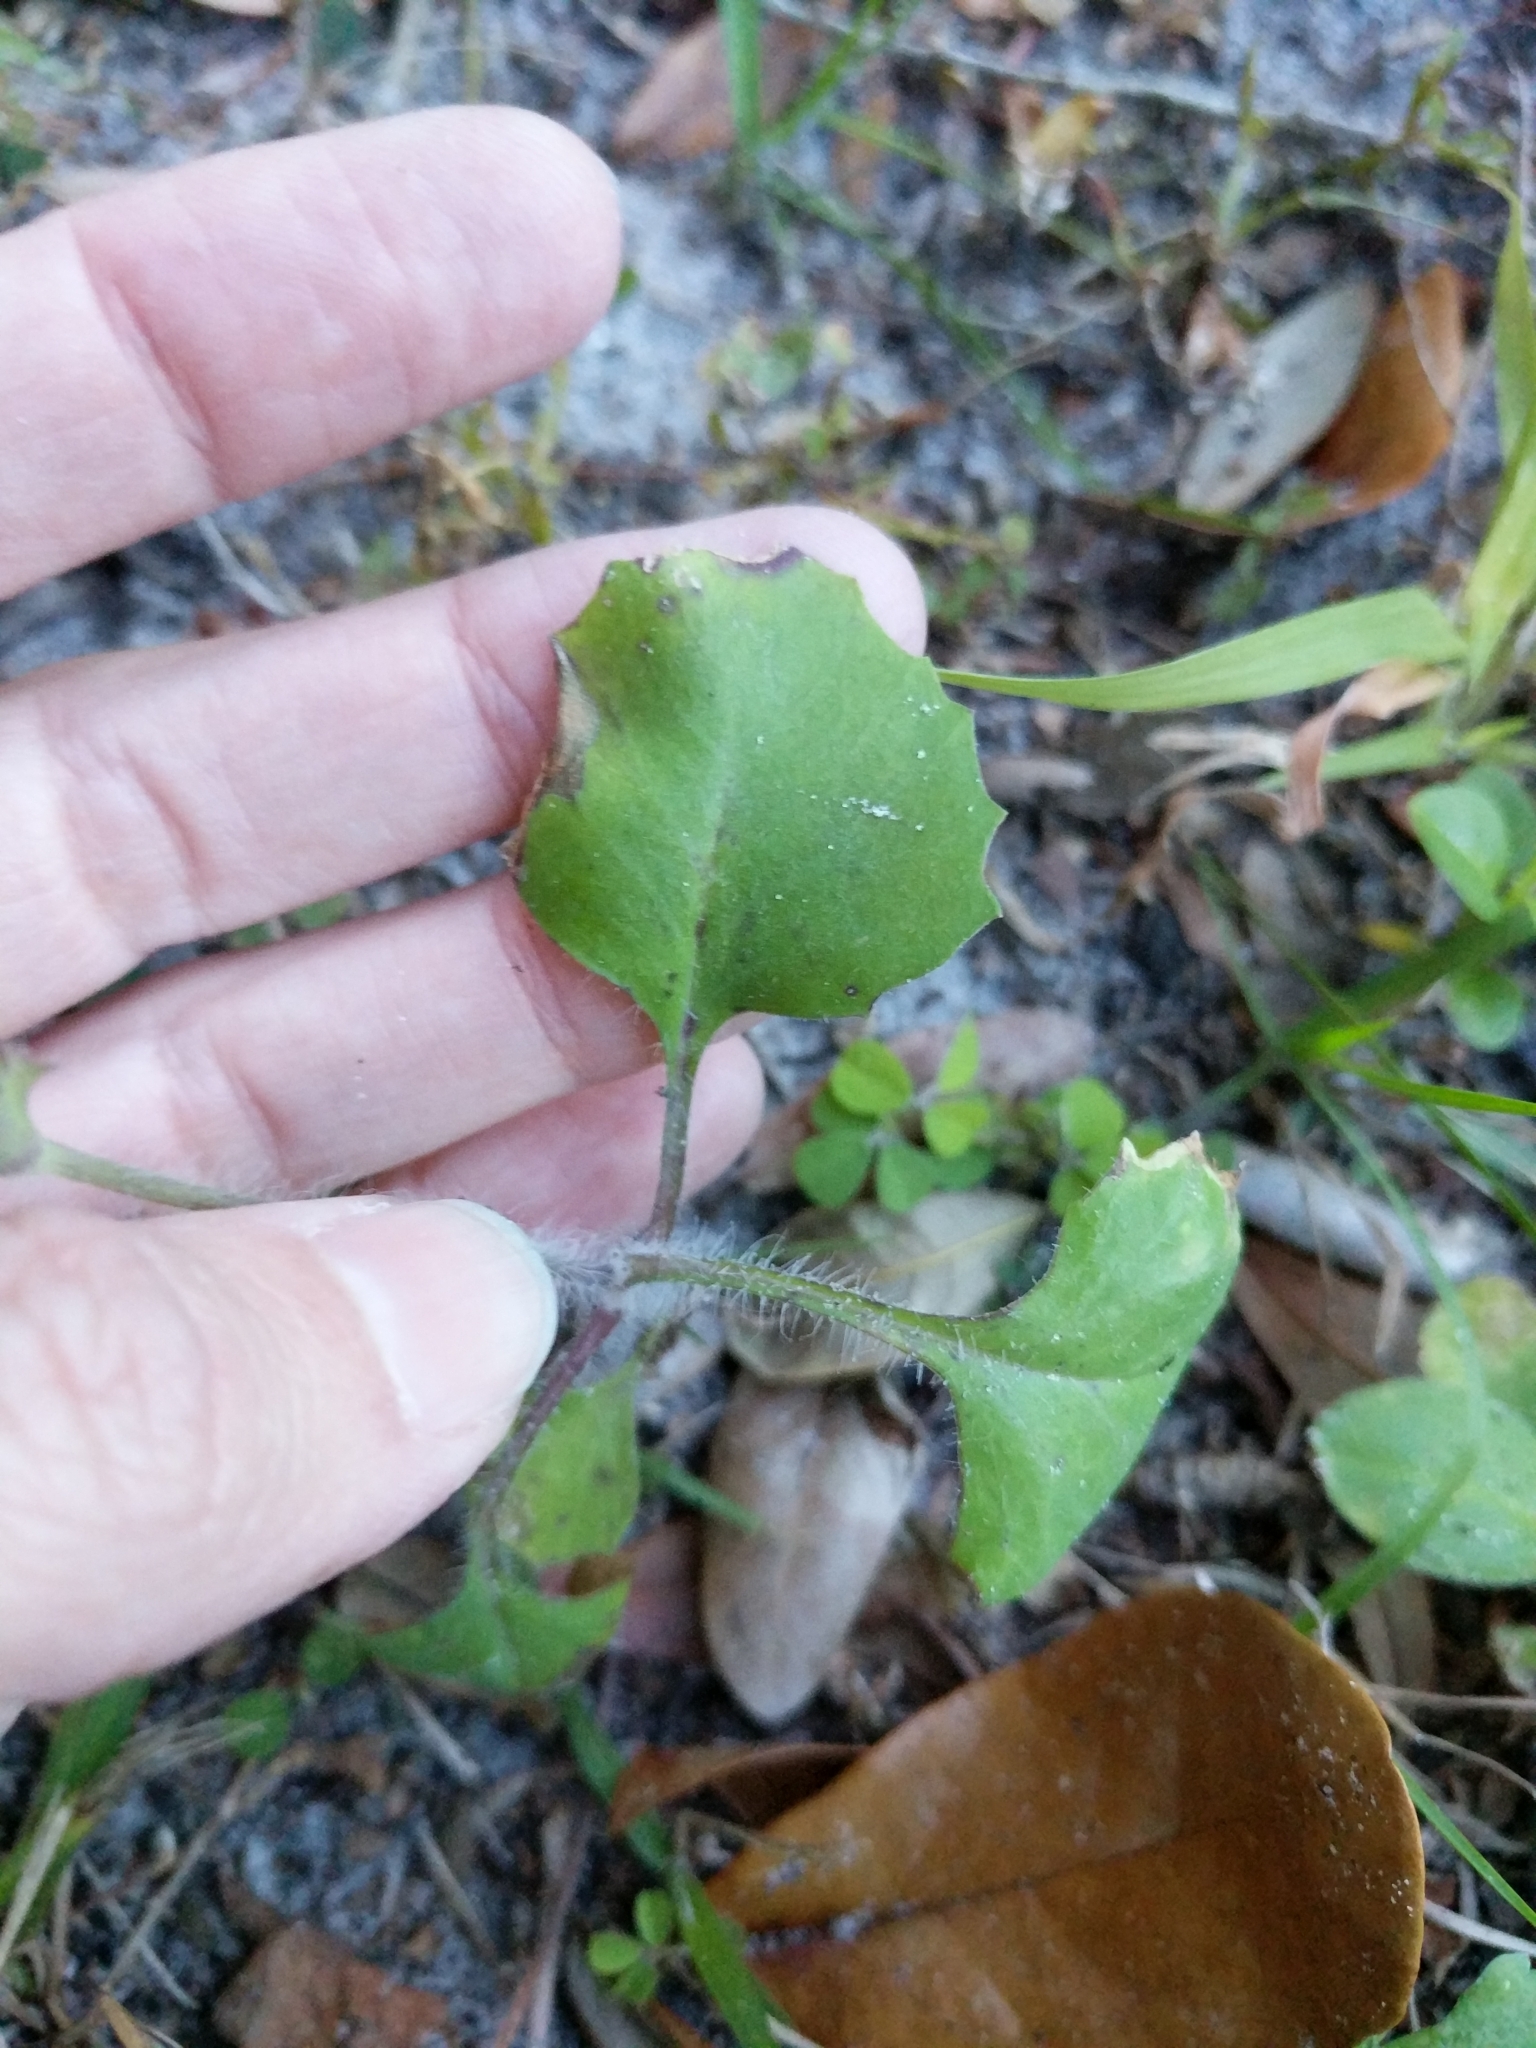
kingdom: Plantae
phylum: Tracheophyta
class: Magnoliopsida
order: Asterales
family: Asteraceae
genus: Emilia
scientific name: Emilia fosbergii
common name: Florida tasselflower
